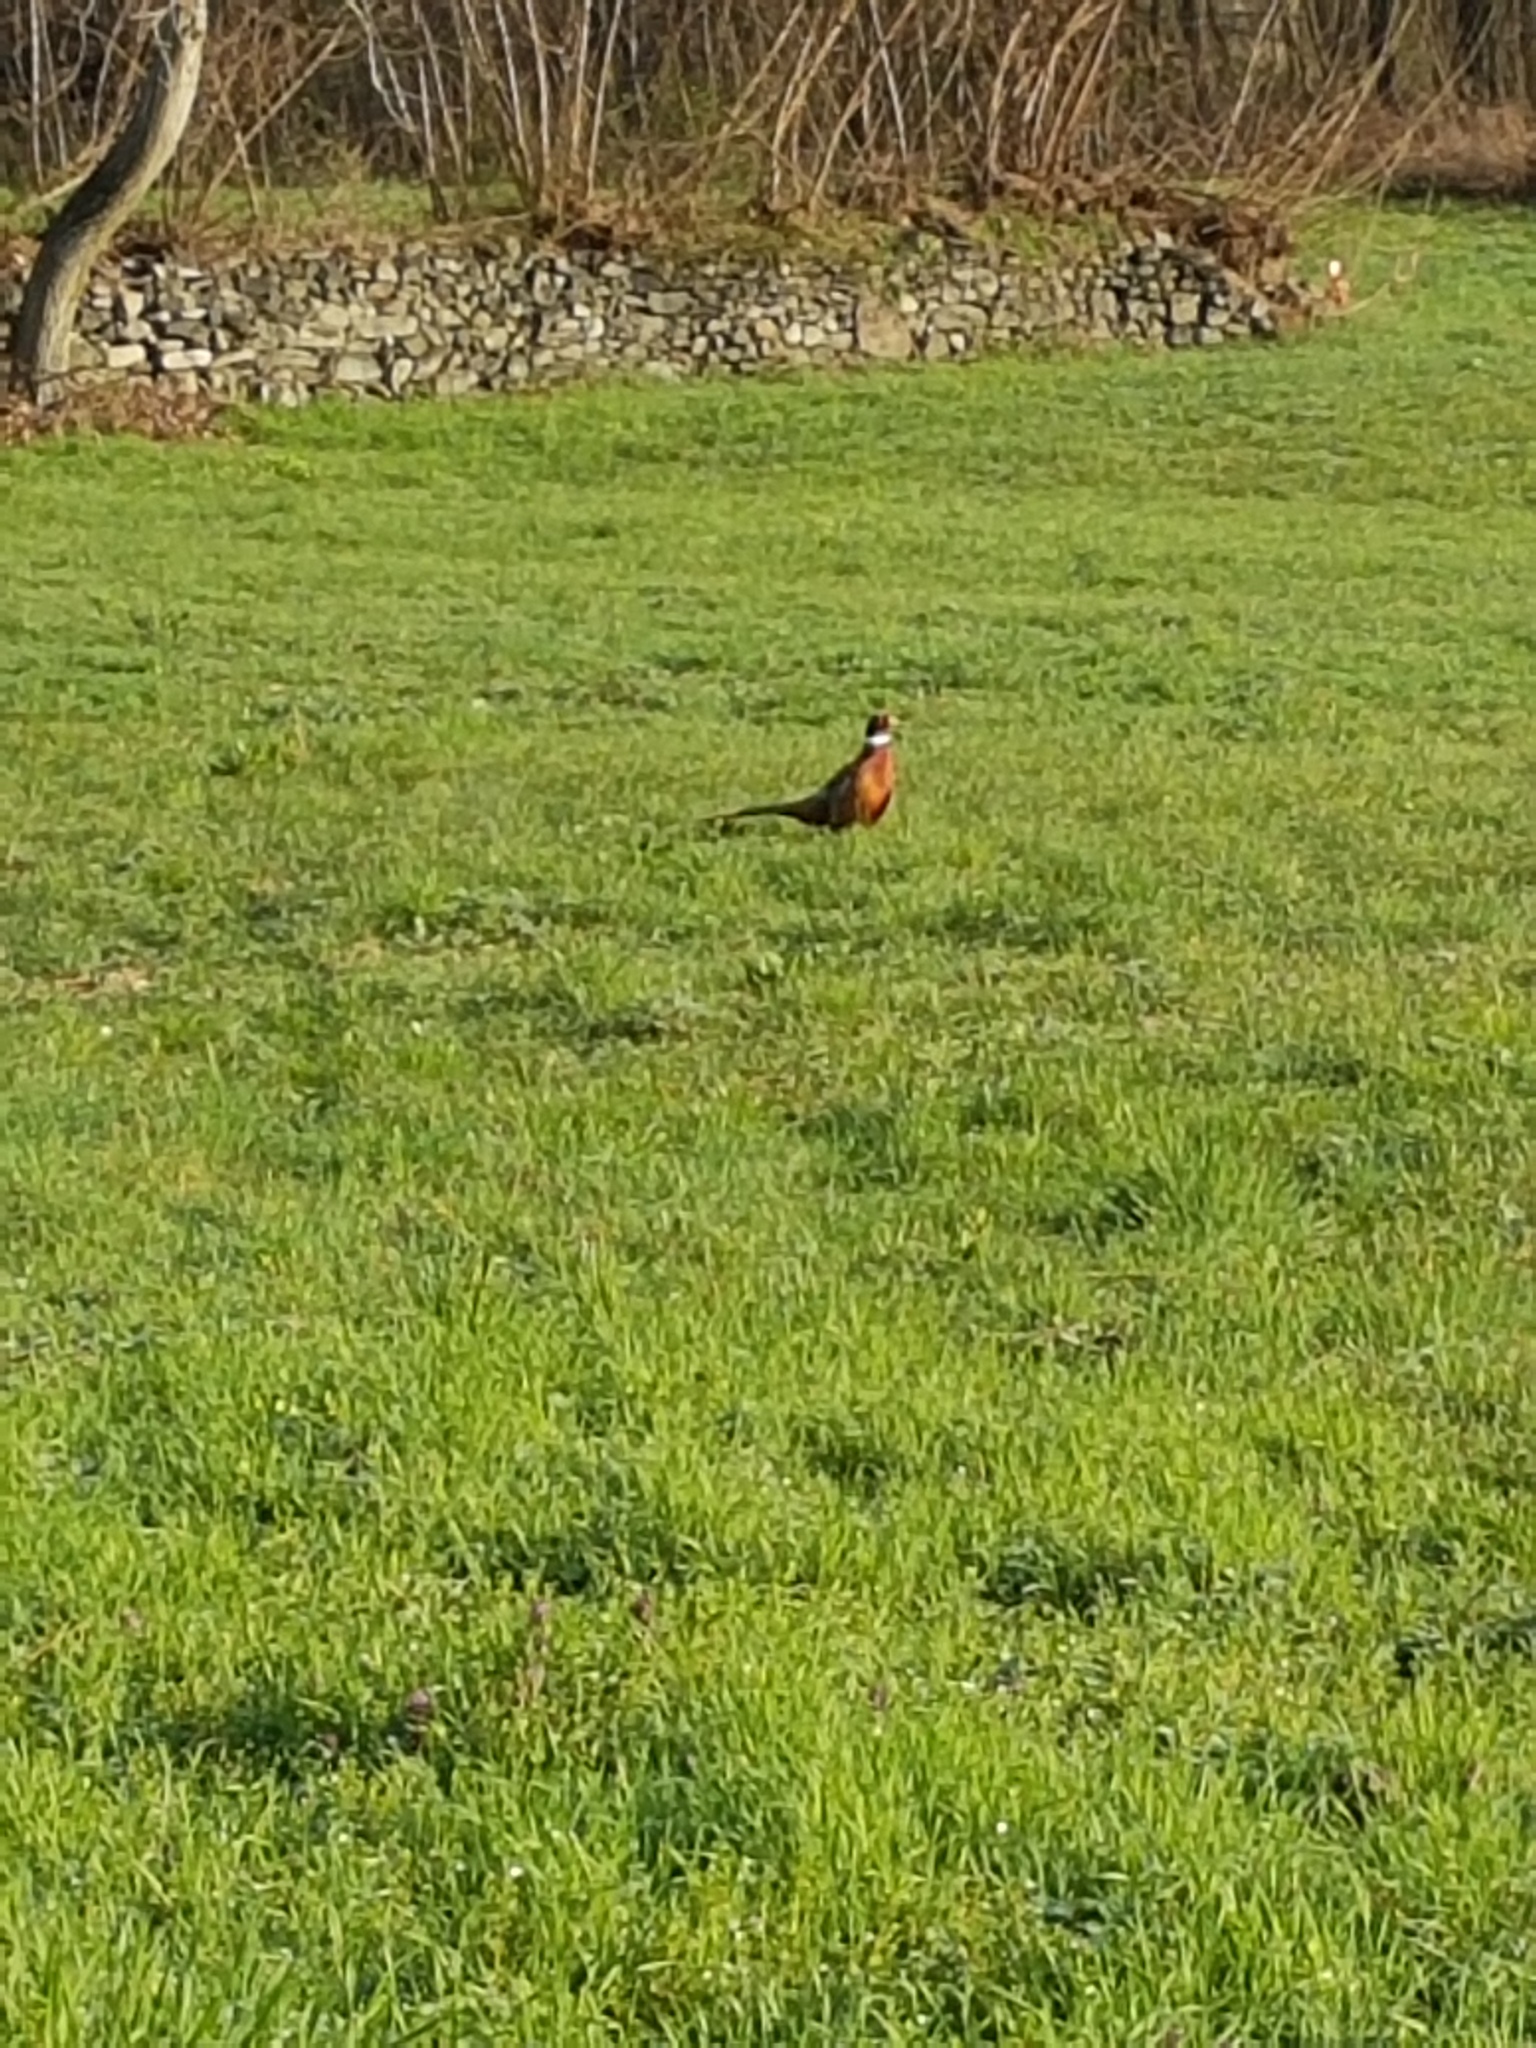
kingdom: Animalia
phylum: Chordata
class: Aves
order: Galliformes
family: Phasianidae
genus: Phasianus
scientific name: Phasianus colchicus
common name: Common pheasant
